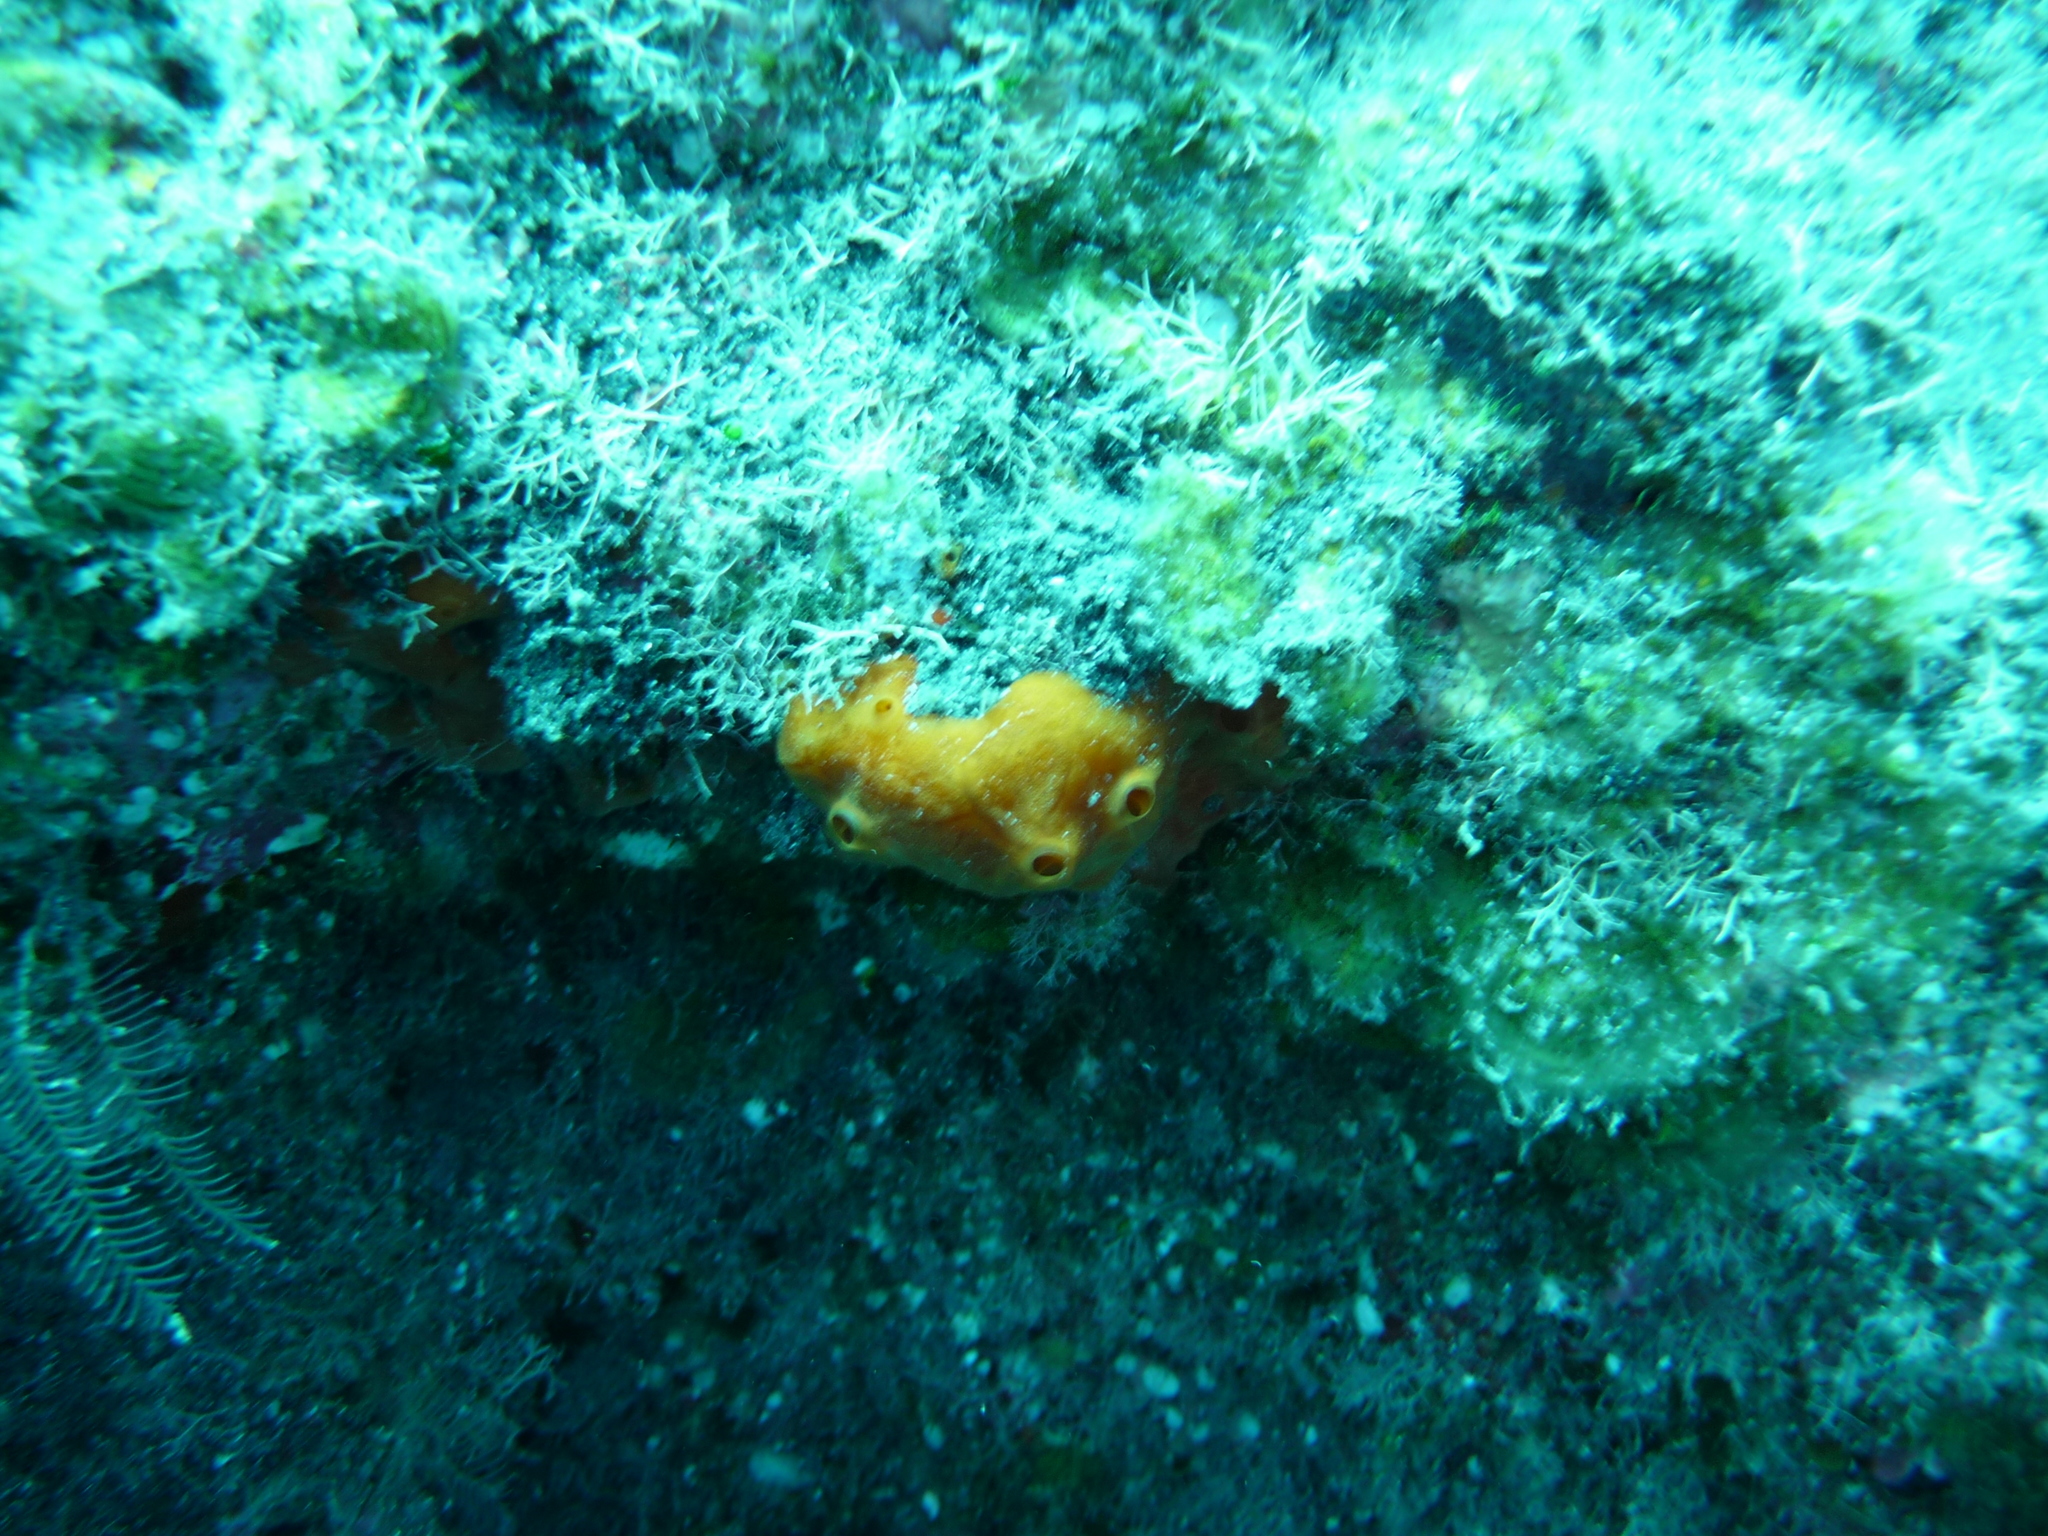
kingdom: Animalia
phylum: Porifera
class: Demospongiae
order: Poecilosclerida
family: Crambeidae
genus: Crambe
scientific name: Crambe crambe
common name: Orange-red encrusting sponge
